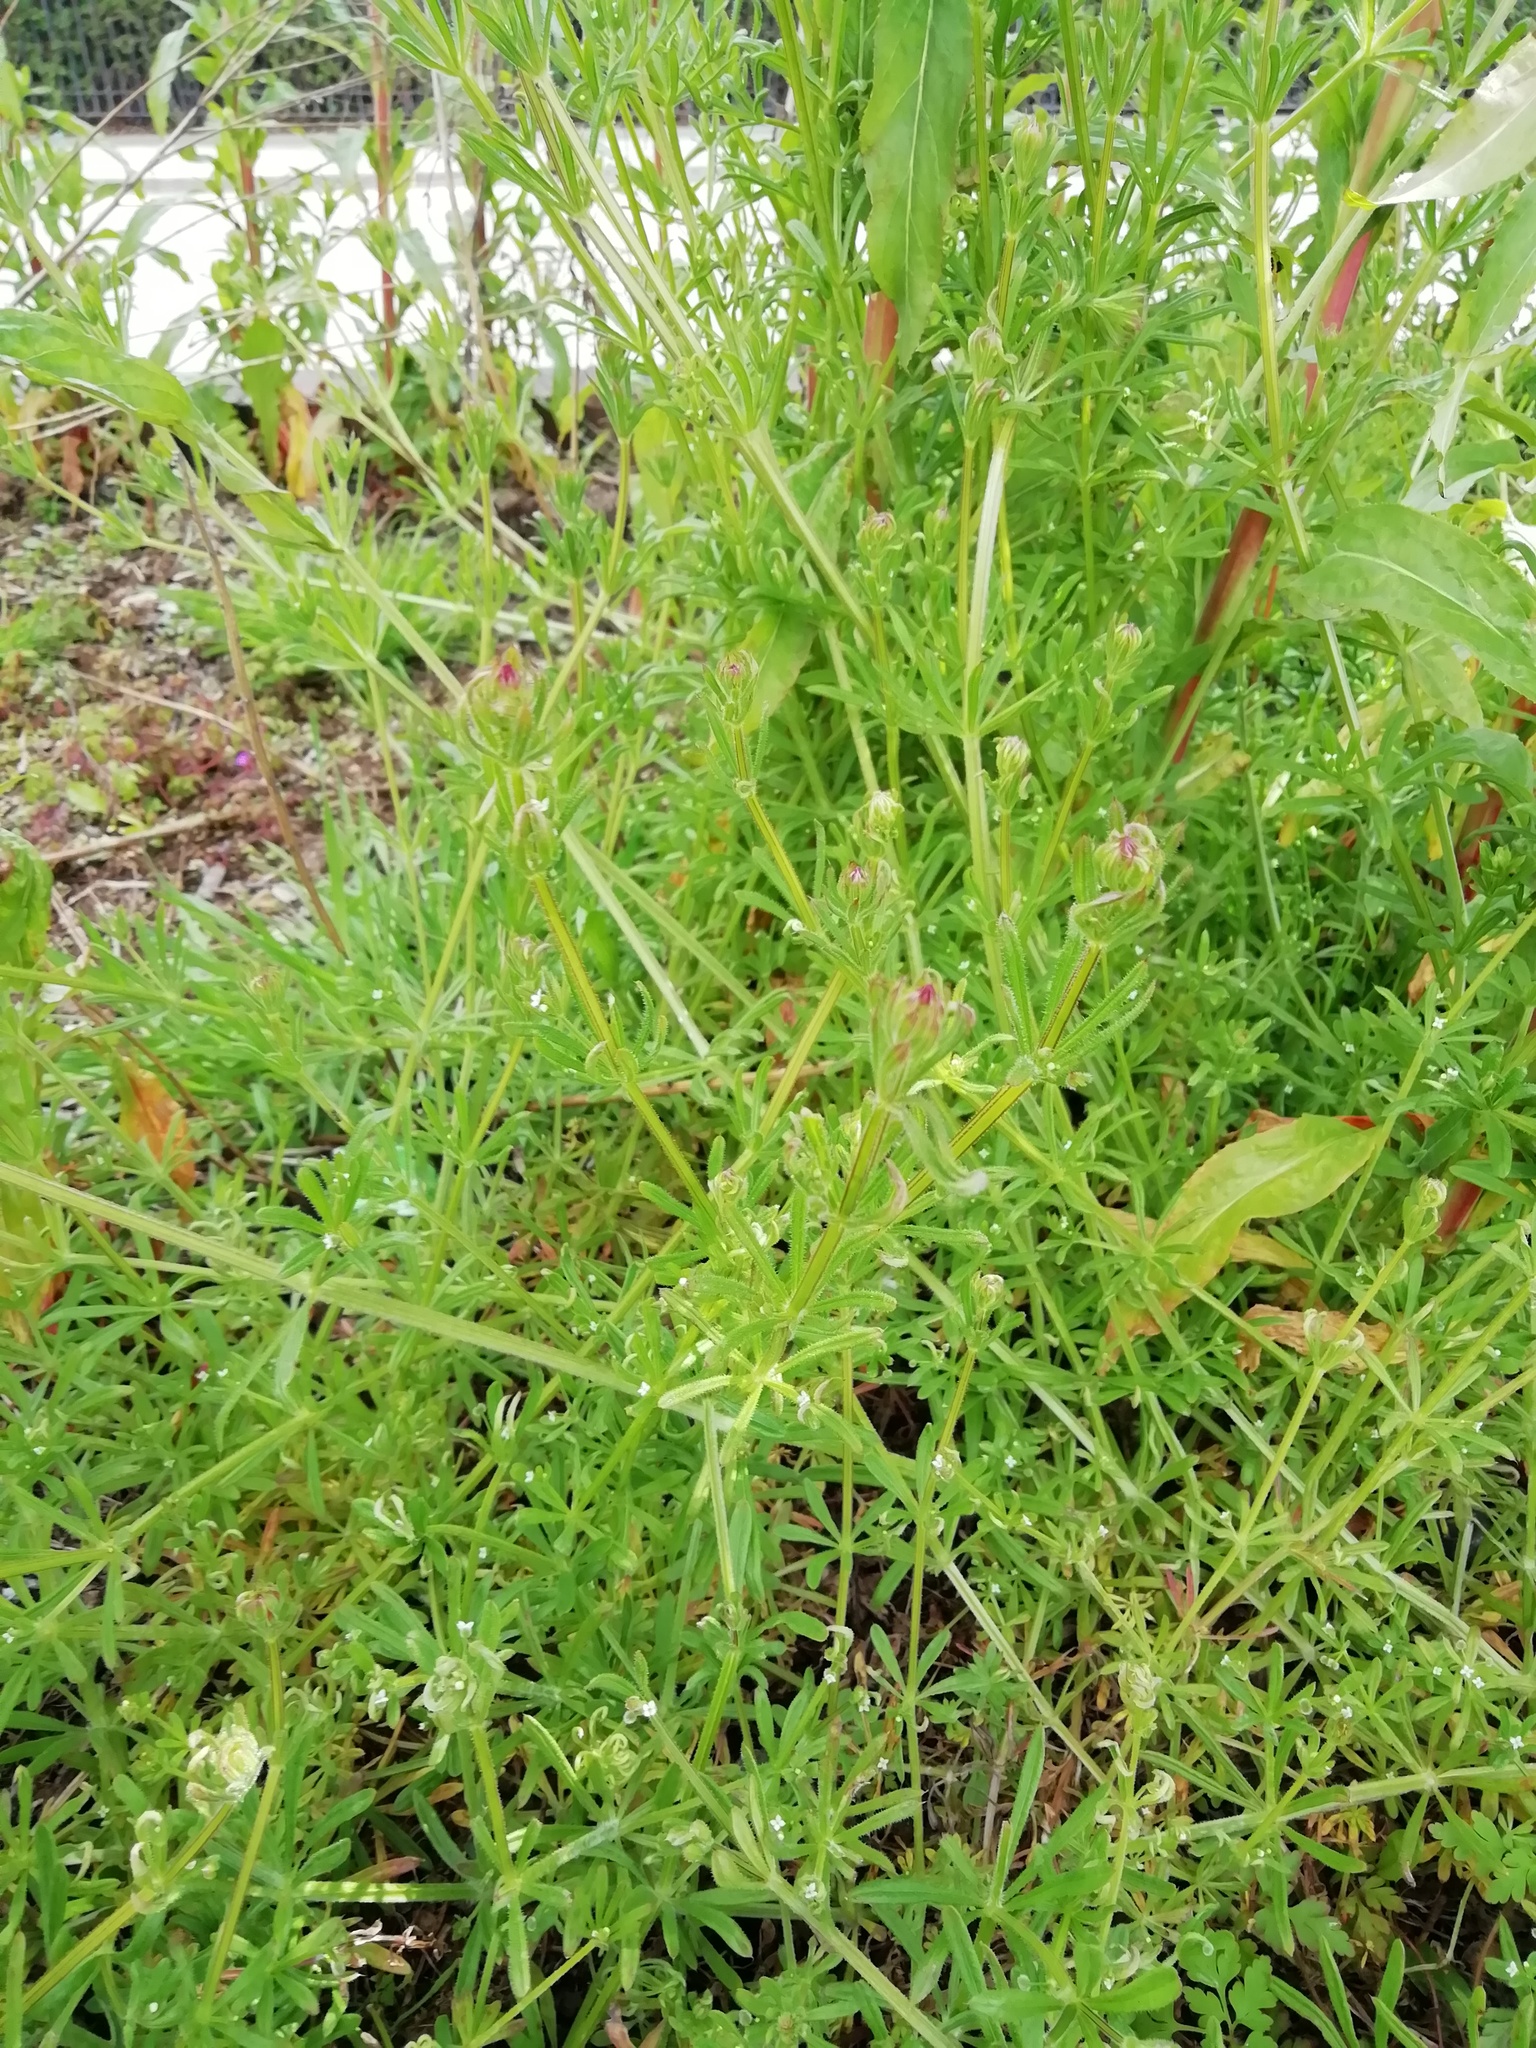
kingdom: Plantae
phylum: Tracheophyta
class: Magnoliopsida
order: Gentianales
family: Rubiaceae
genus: Galium
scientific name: Galium aparine
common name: Cleavers
